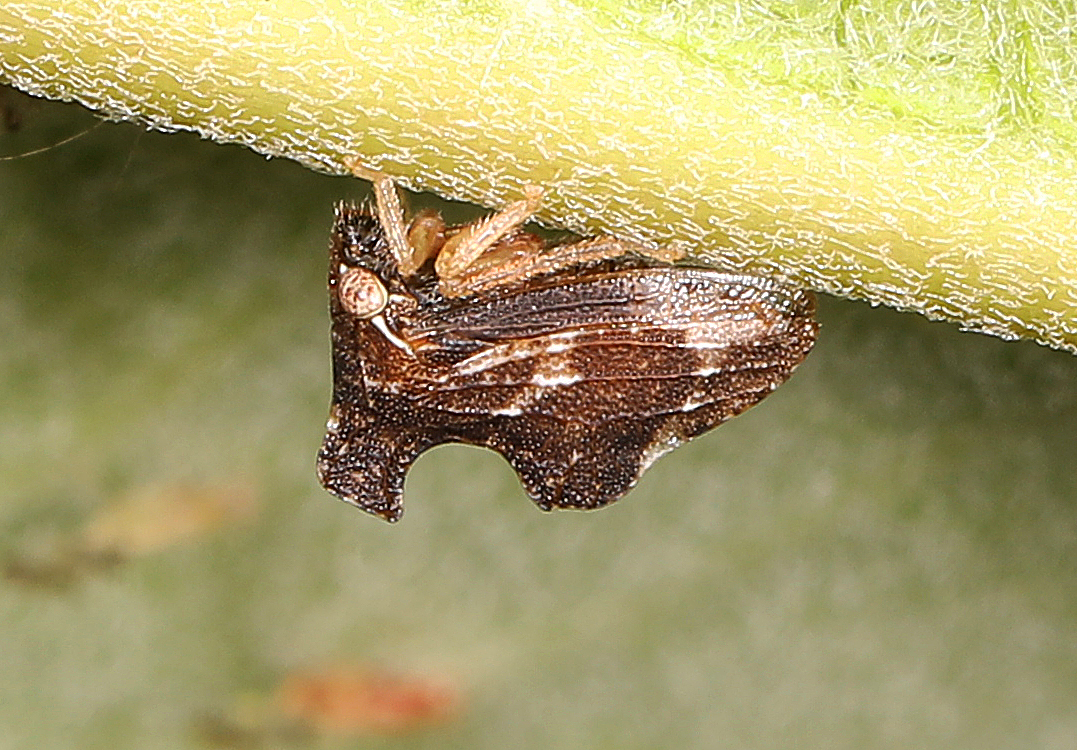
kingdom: Animalia
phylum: Arthropoda
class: Insecta
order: Hemiptera
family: Membracidae
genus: Entylia
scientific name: Entylia carinata
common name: Keeled treehopper
